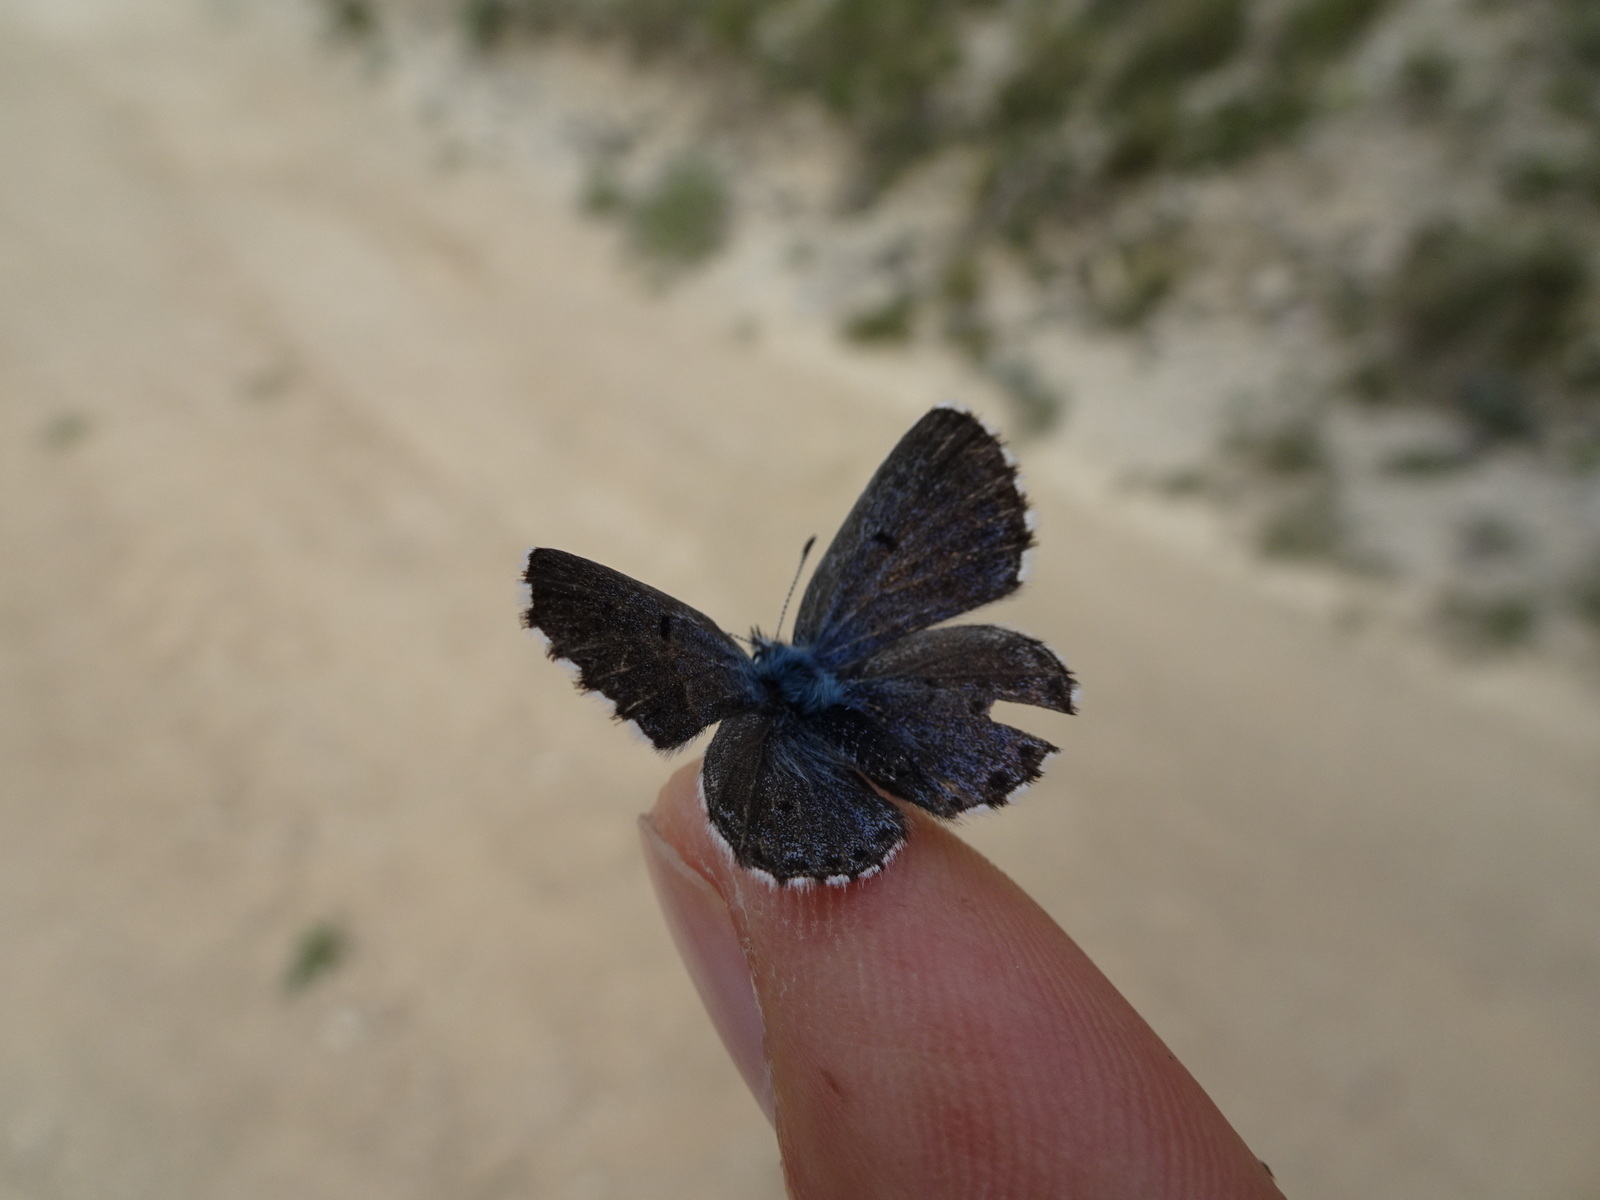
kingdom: Animalia
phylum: Arthropoda
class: Insecta
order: Lepidoptera
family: Lycaenidae
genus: Pseudophilotes
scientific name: Pseudophilotes baton
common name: Baton blue
